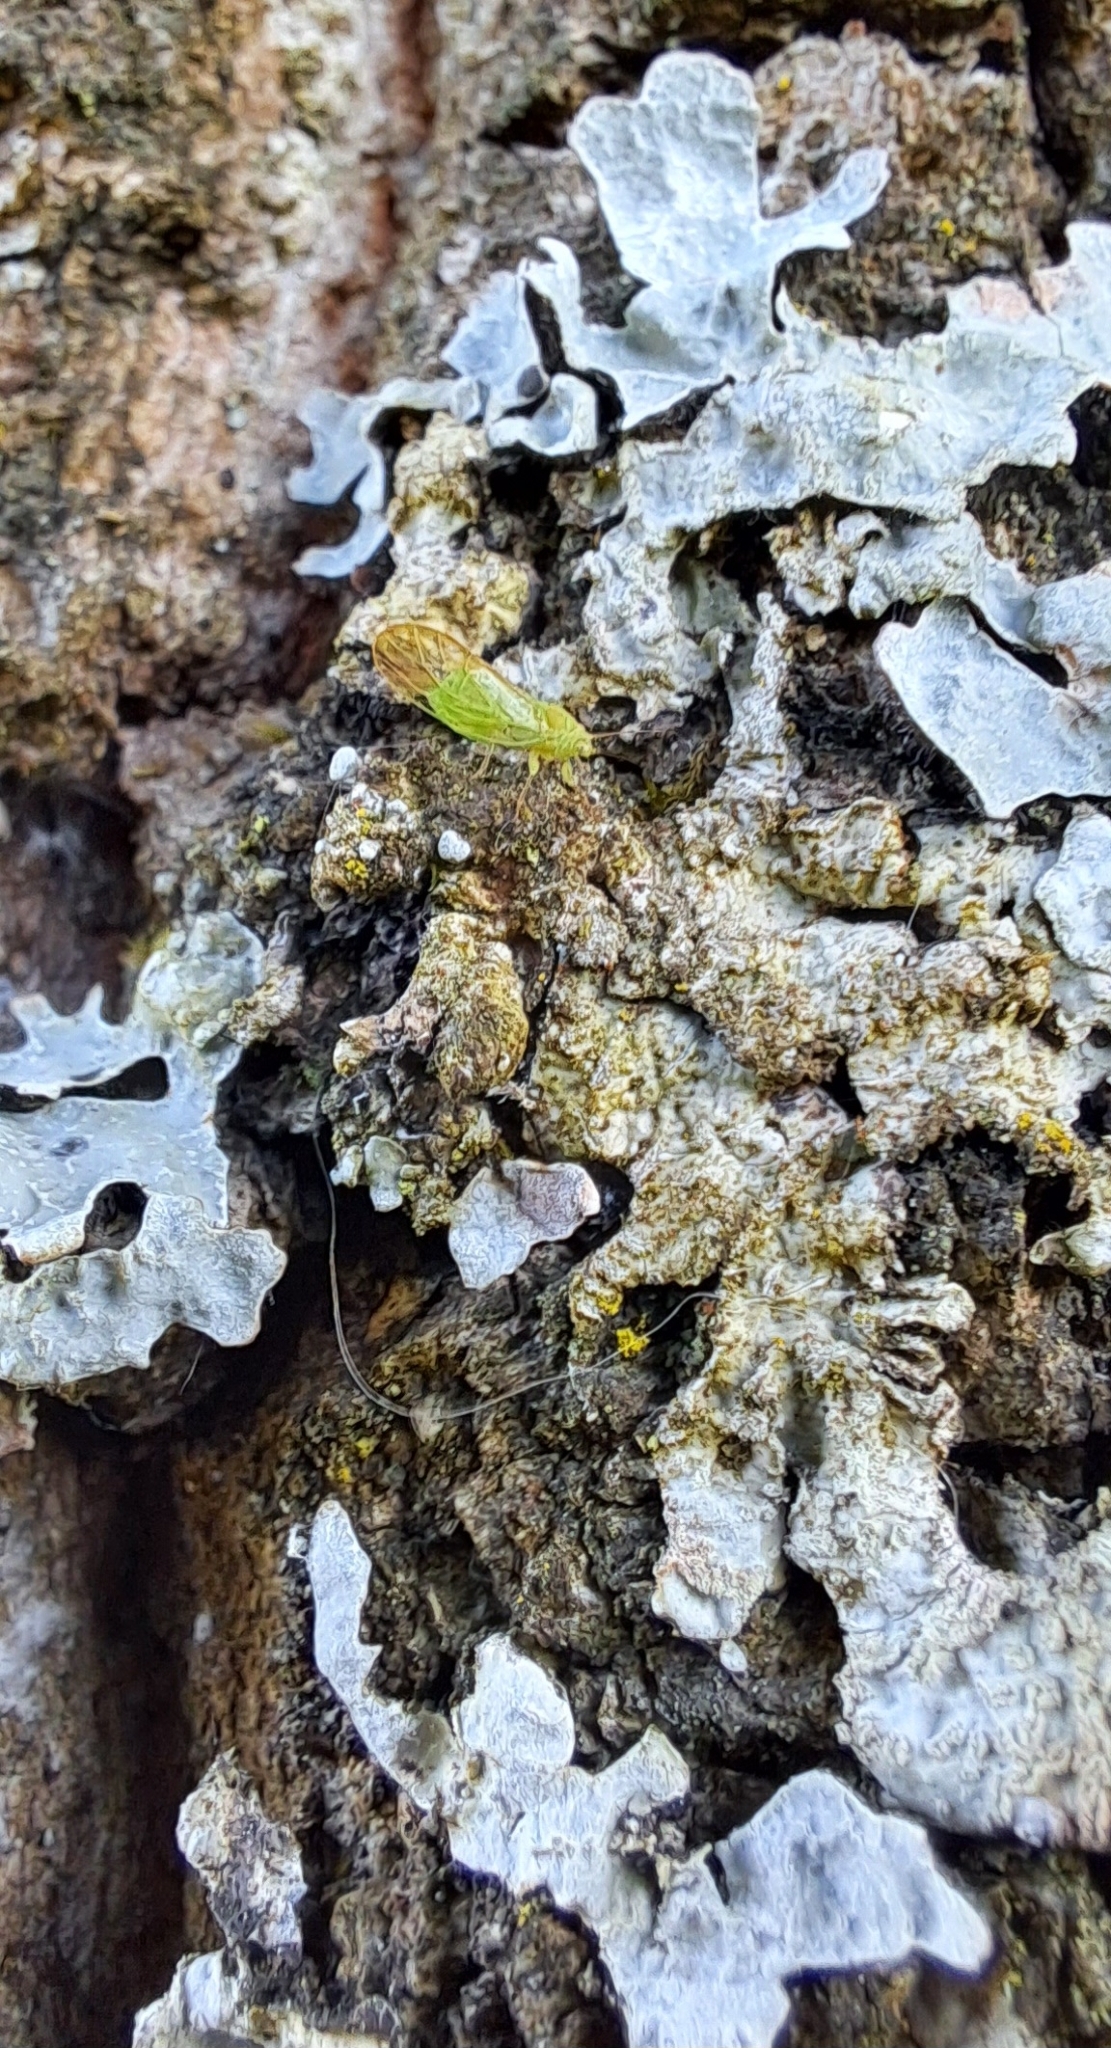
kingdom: Fungi
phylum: Ascomycota
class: Lecanoromycetes
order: Lecanorales
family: Parmeliaceae
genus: Parmelia
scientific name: Parmelia sulcata
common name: Netted shield lichen
